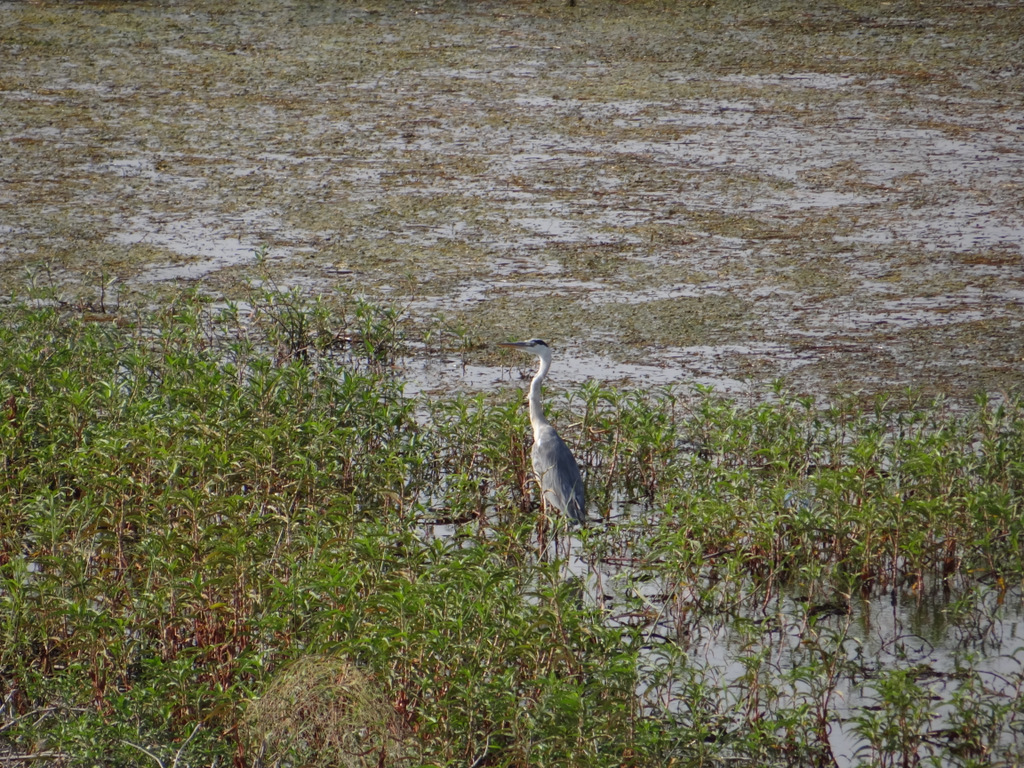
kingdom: Animalia
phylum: Chordata
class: Aves
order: Pelecaniformes
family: Ardeidae
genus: Ardea
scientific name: Ardea cinerea
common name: Grey heron
